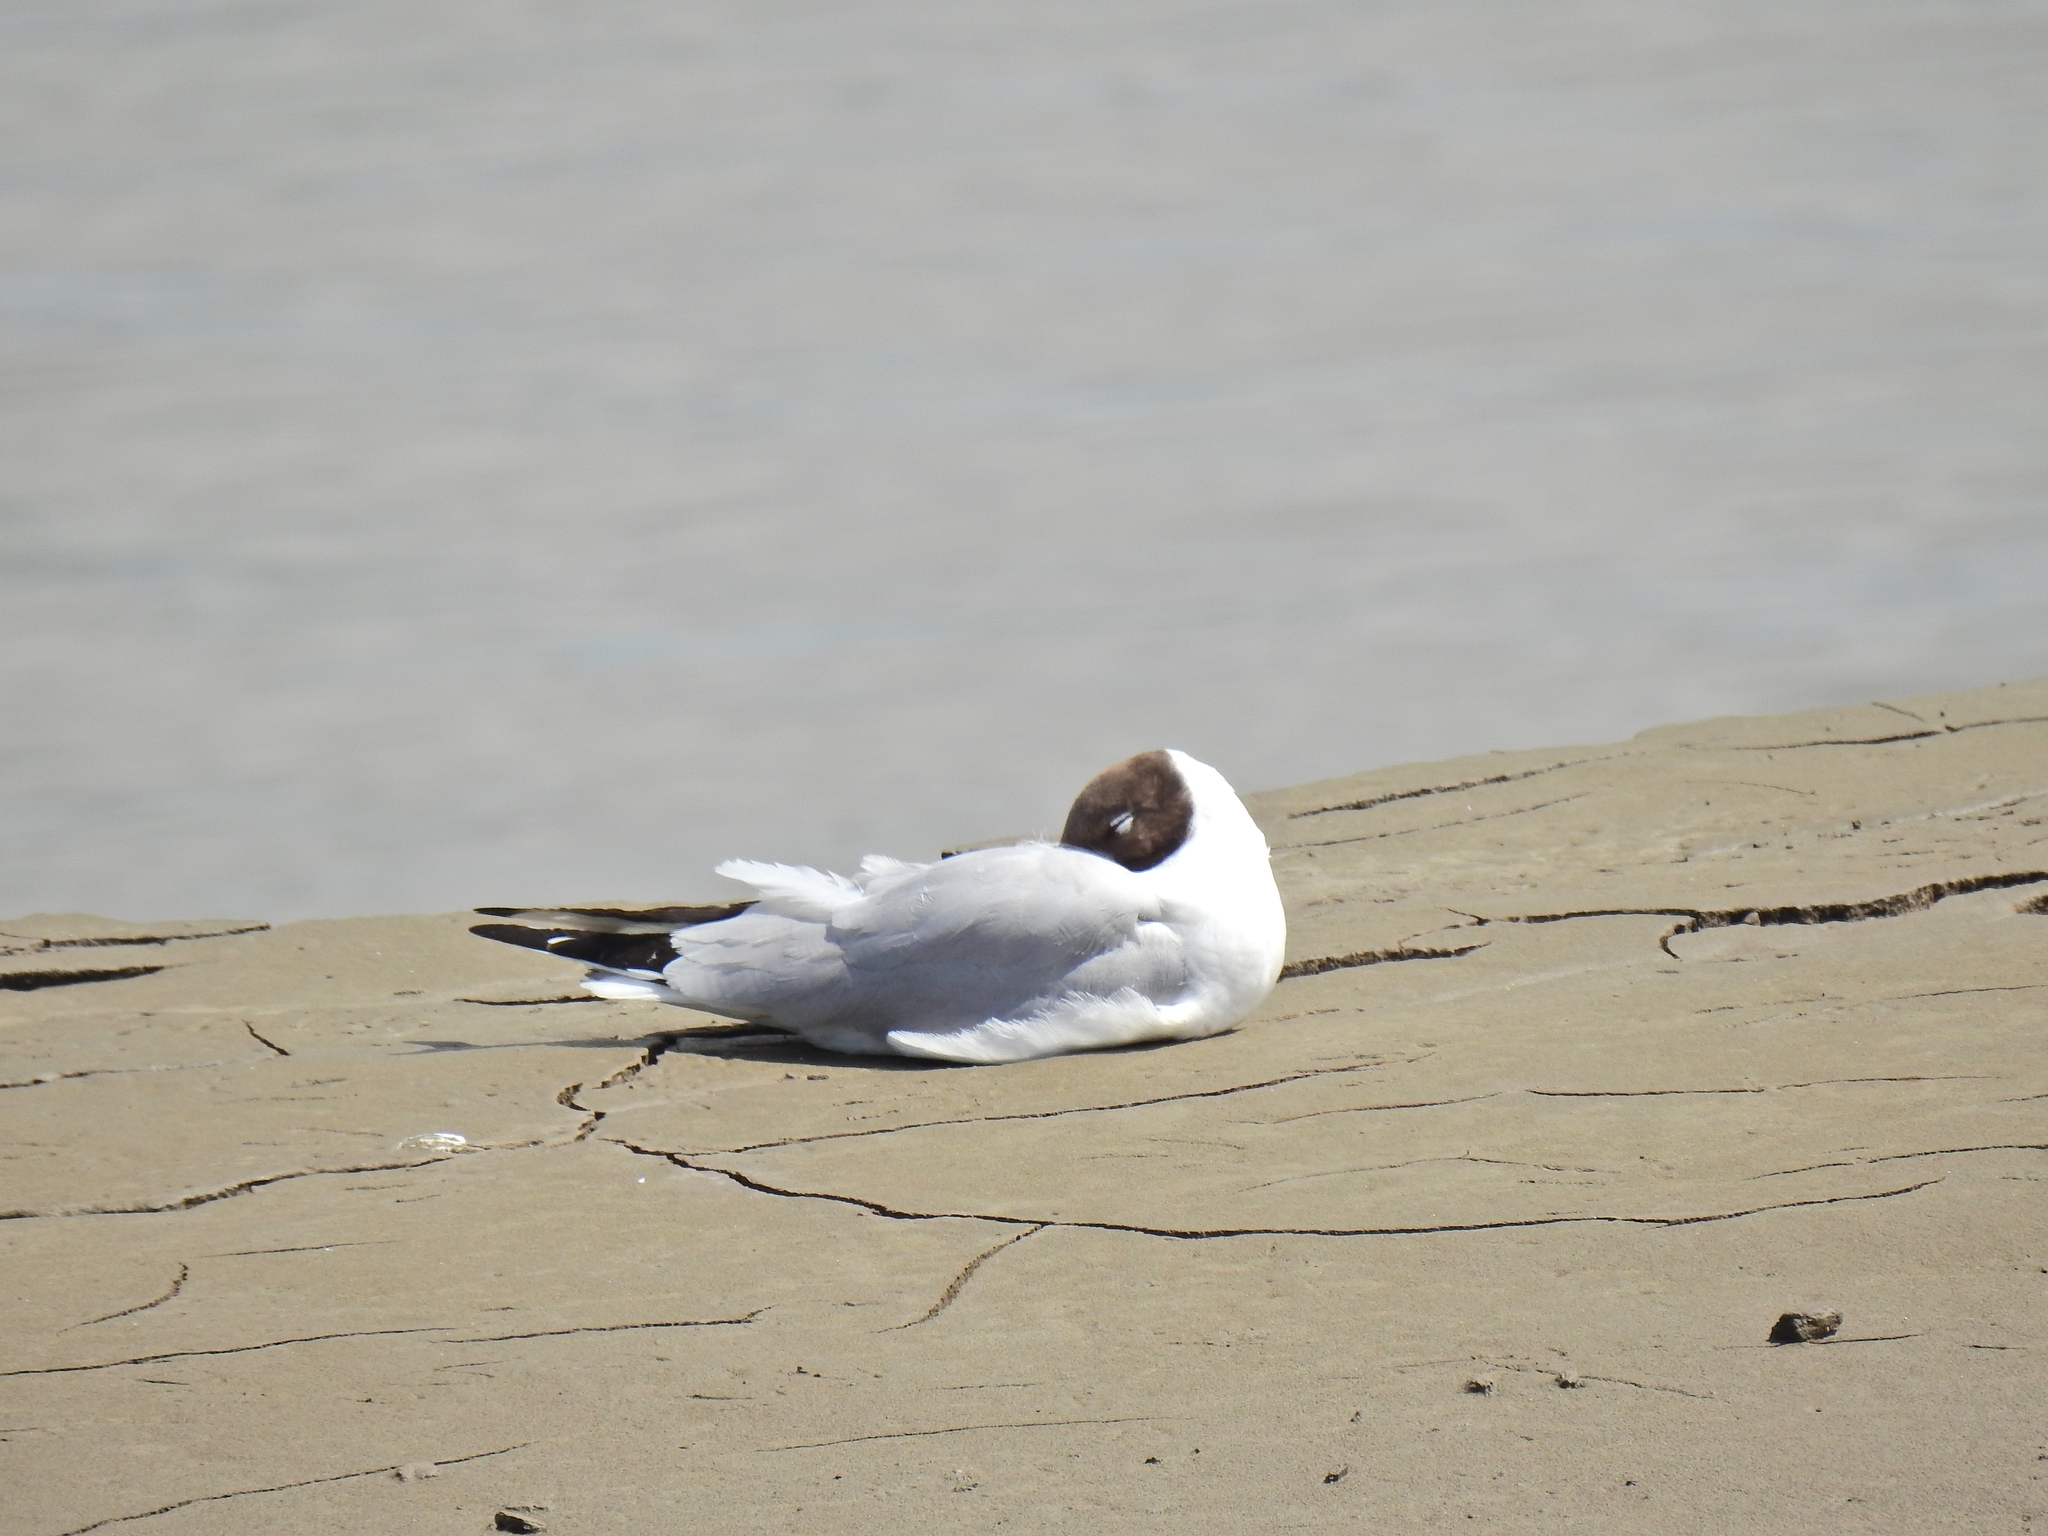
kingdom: Animalia
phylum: Chordata
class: Aves
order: Charadriiformes
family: Laridae
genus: Chroicocephalus
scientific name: Chroicocephalus ridibundus
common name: Black-headed gull
